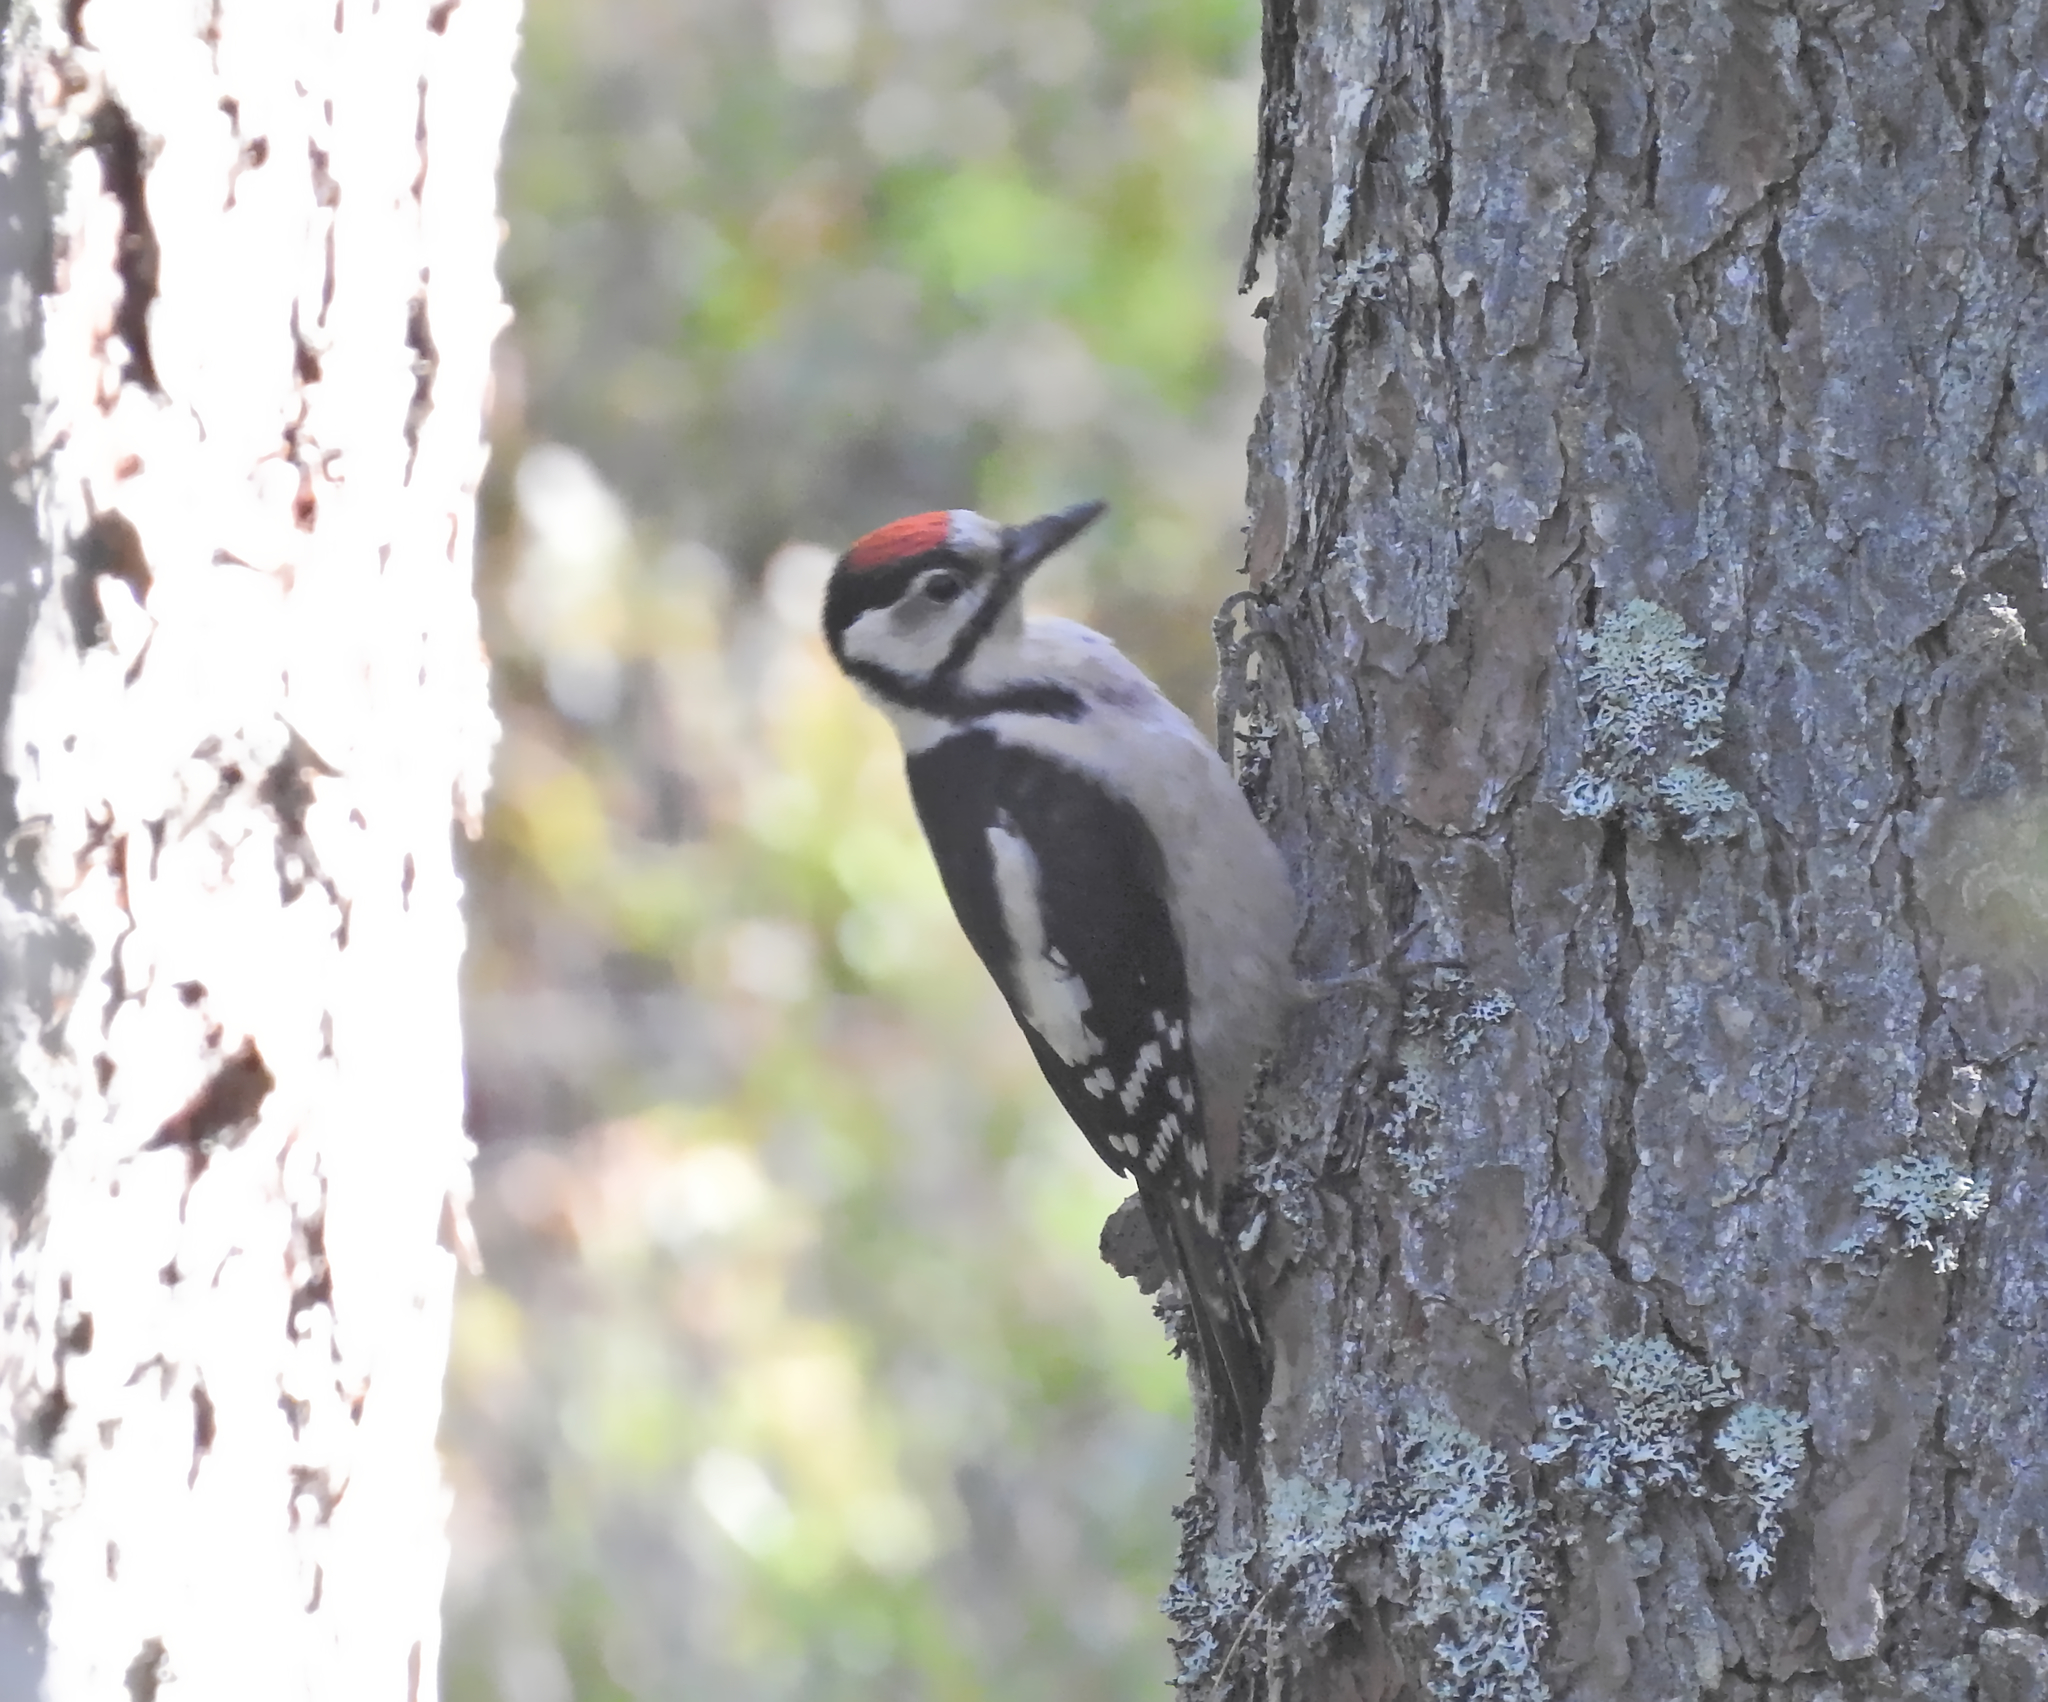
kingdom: Animalia
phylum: Chordata
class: Aves
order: Piciformes
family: Picidae
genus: Dendrocopos
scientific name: Dendrocopos major
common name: Great spotted woodpecker
